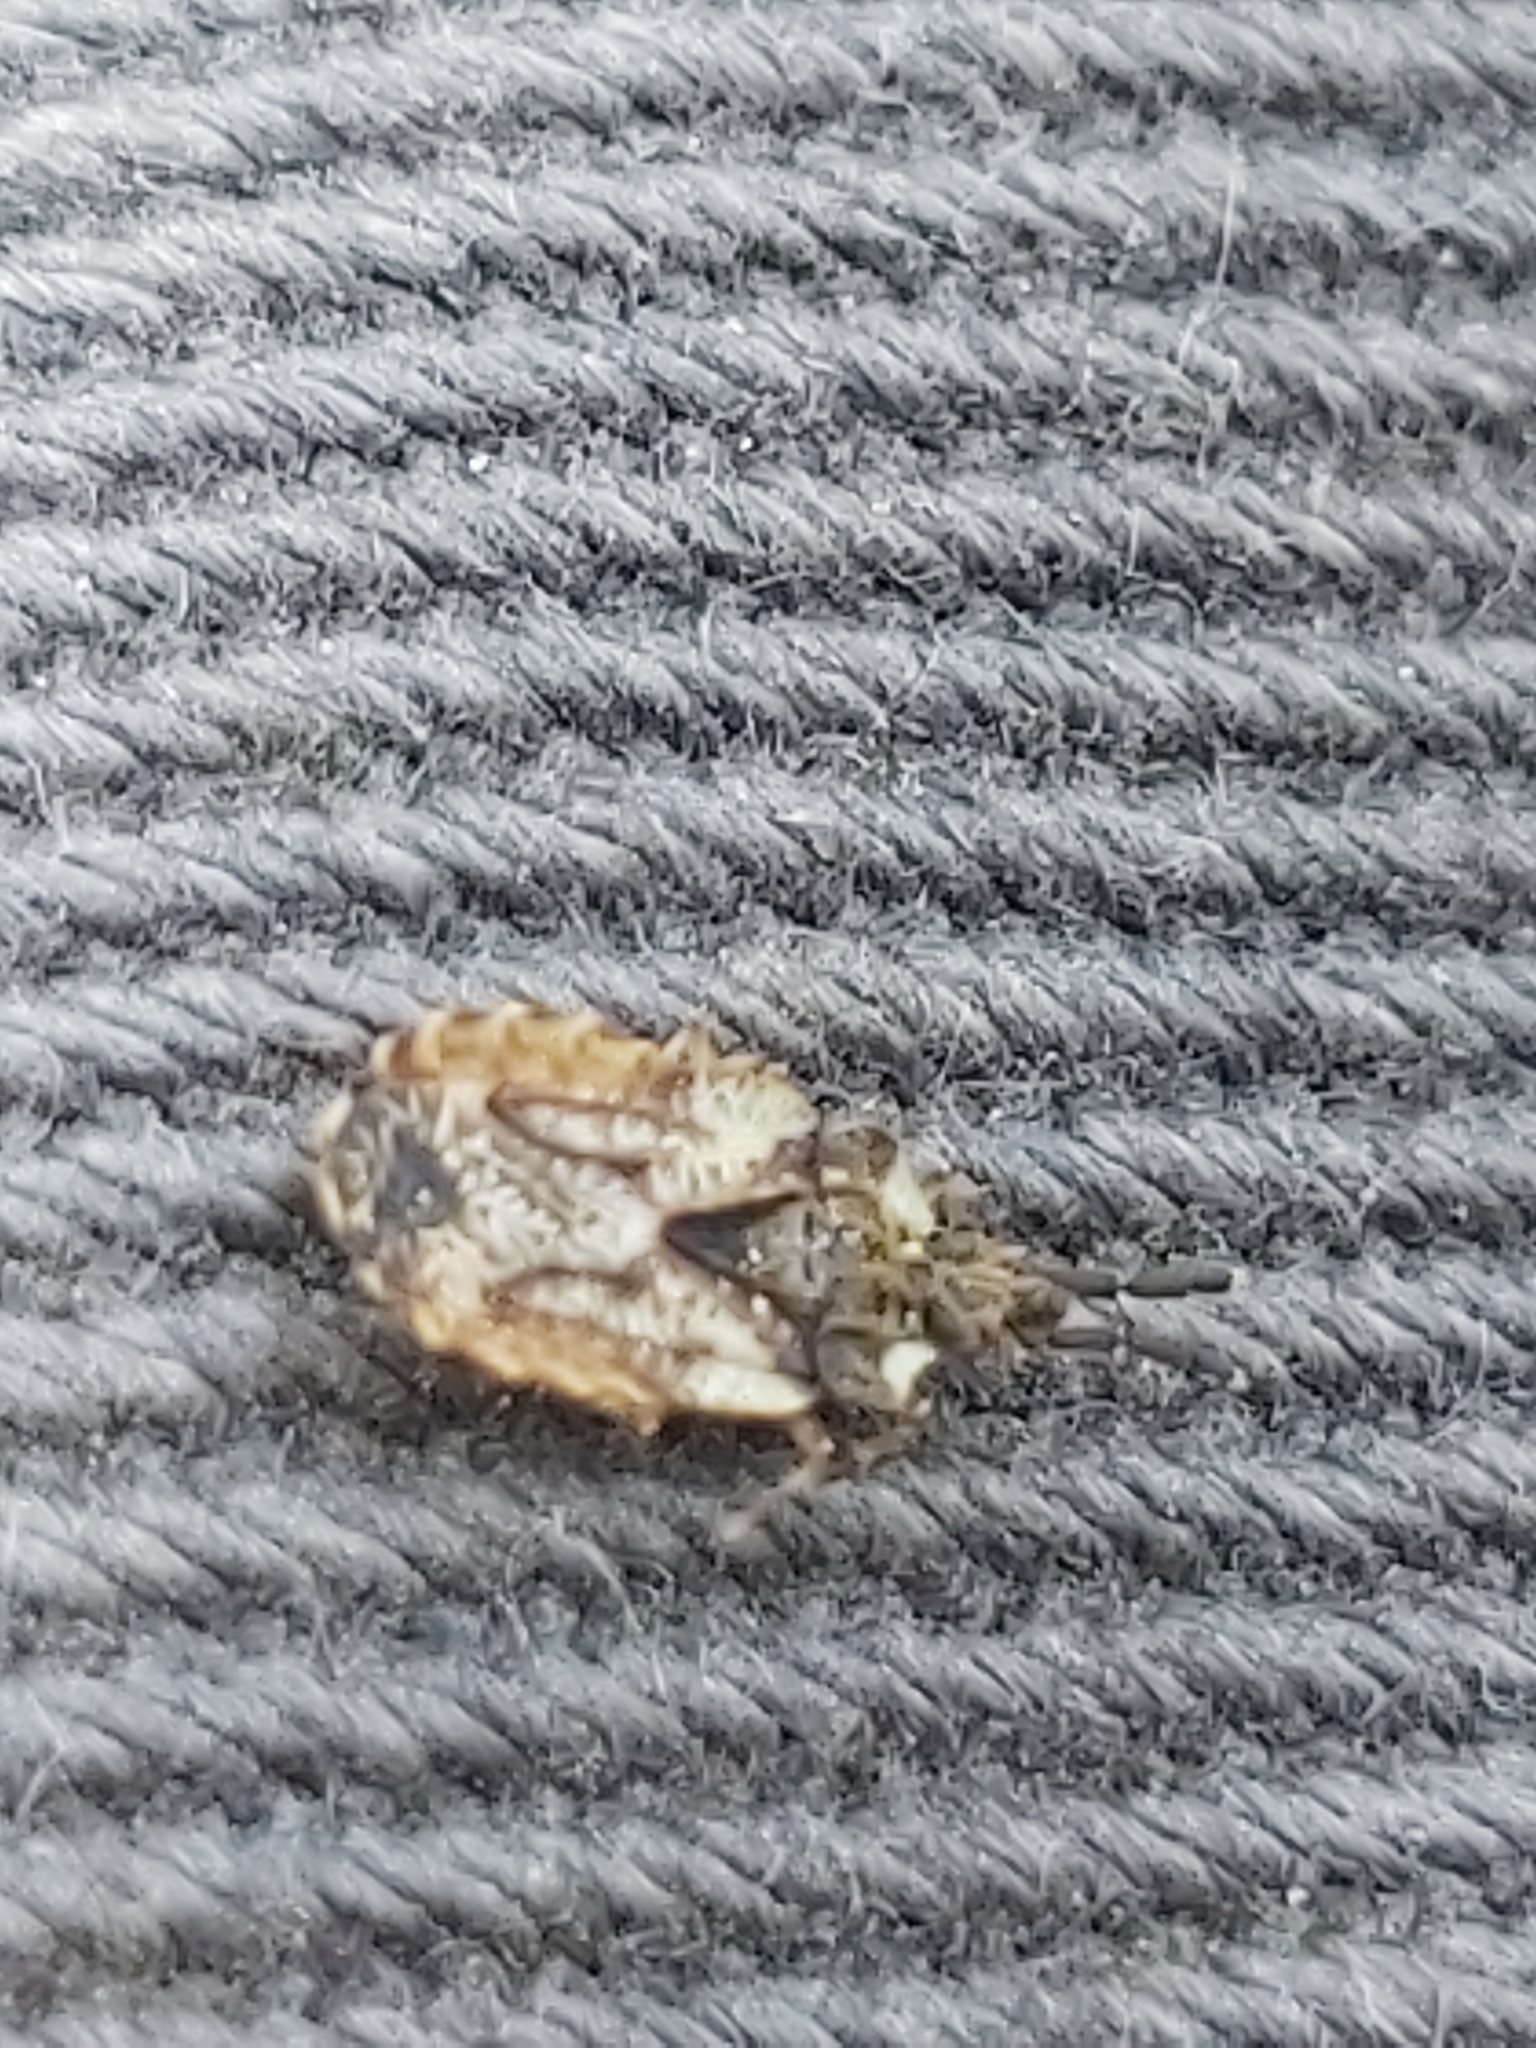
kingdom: Animalia
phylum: Arthropoda
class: Insecta
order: Hemiptera
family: Aradidae
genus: Aradus
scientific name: Aradus depressus
